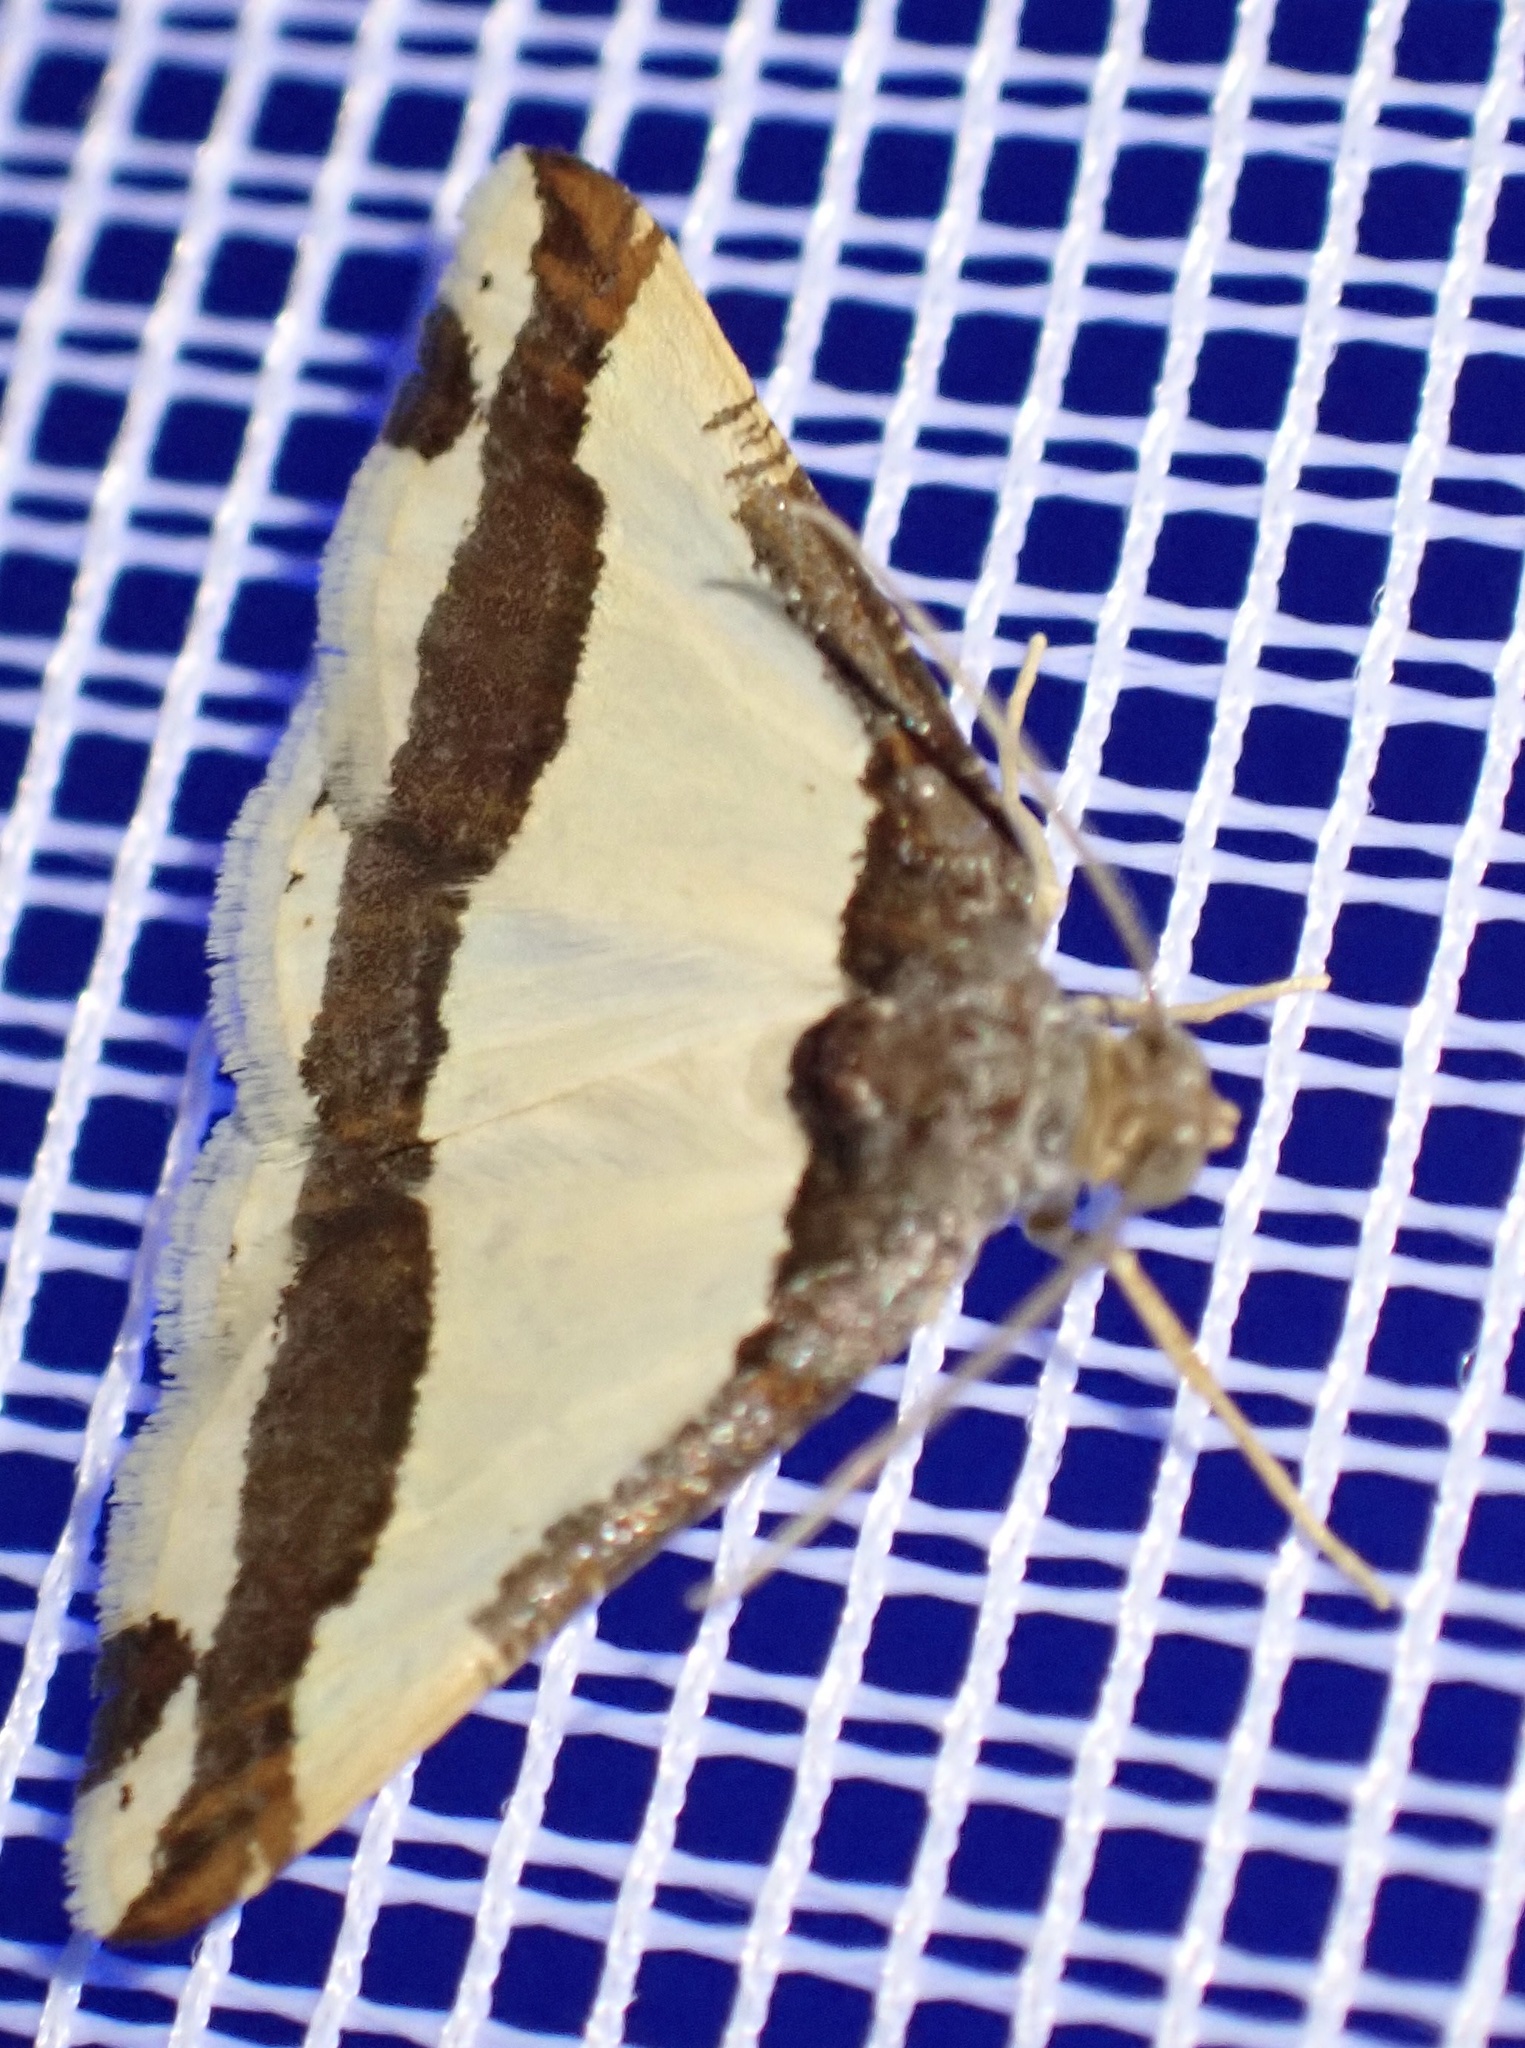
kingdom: Animalia
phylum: Arthropoda
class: Insecta
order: Lepidoptera
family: Geometridae
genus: Ligdia
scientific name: Ligdia batesii
